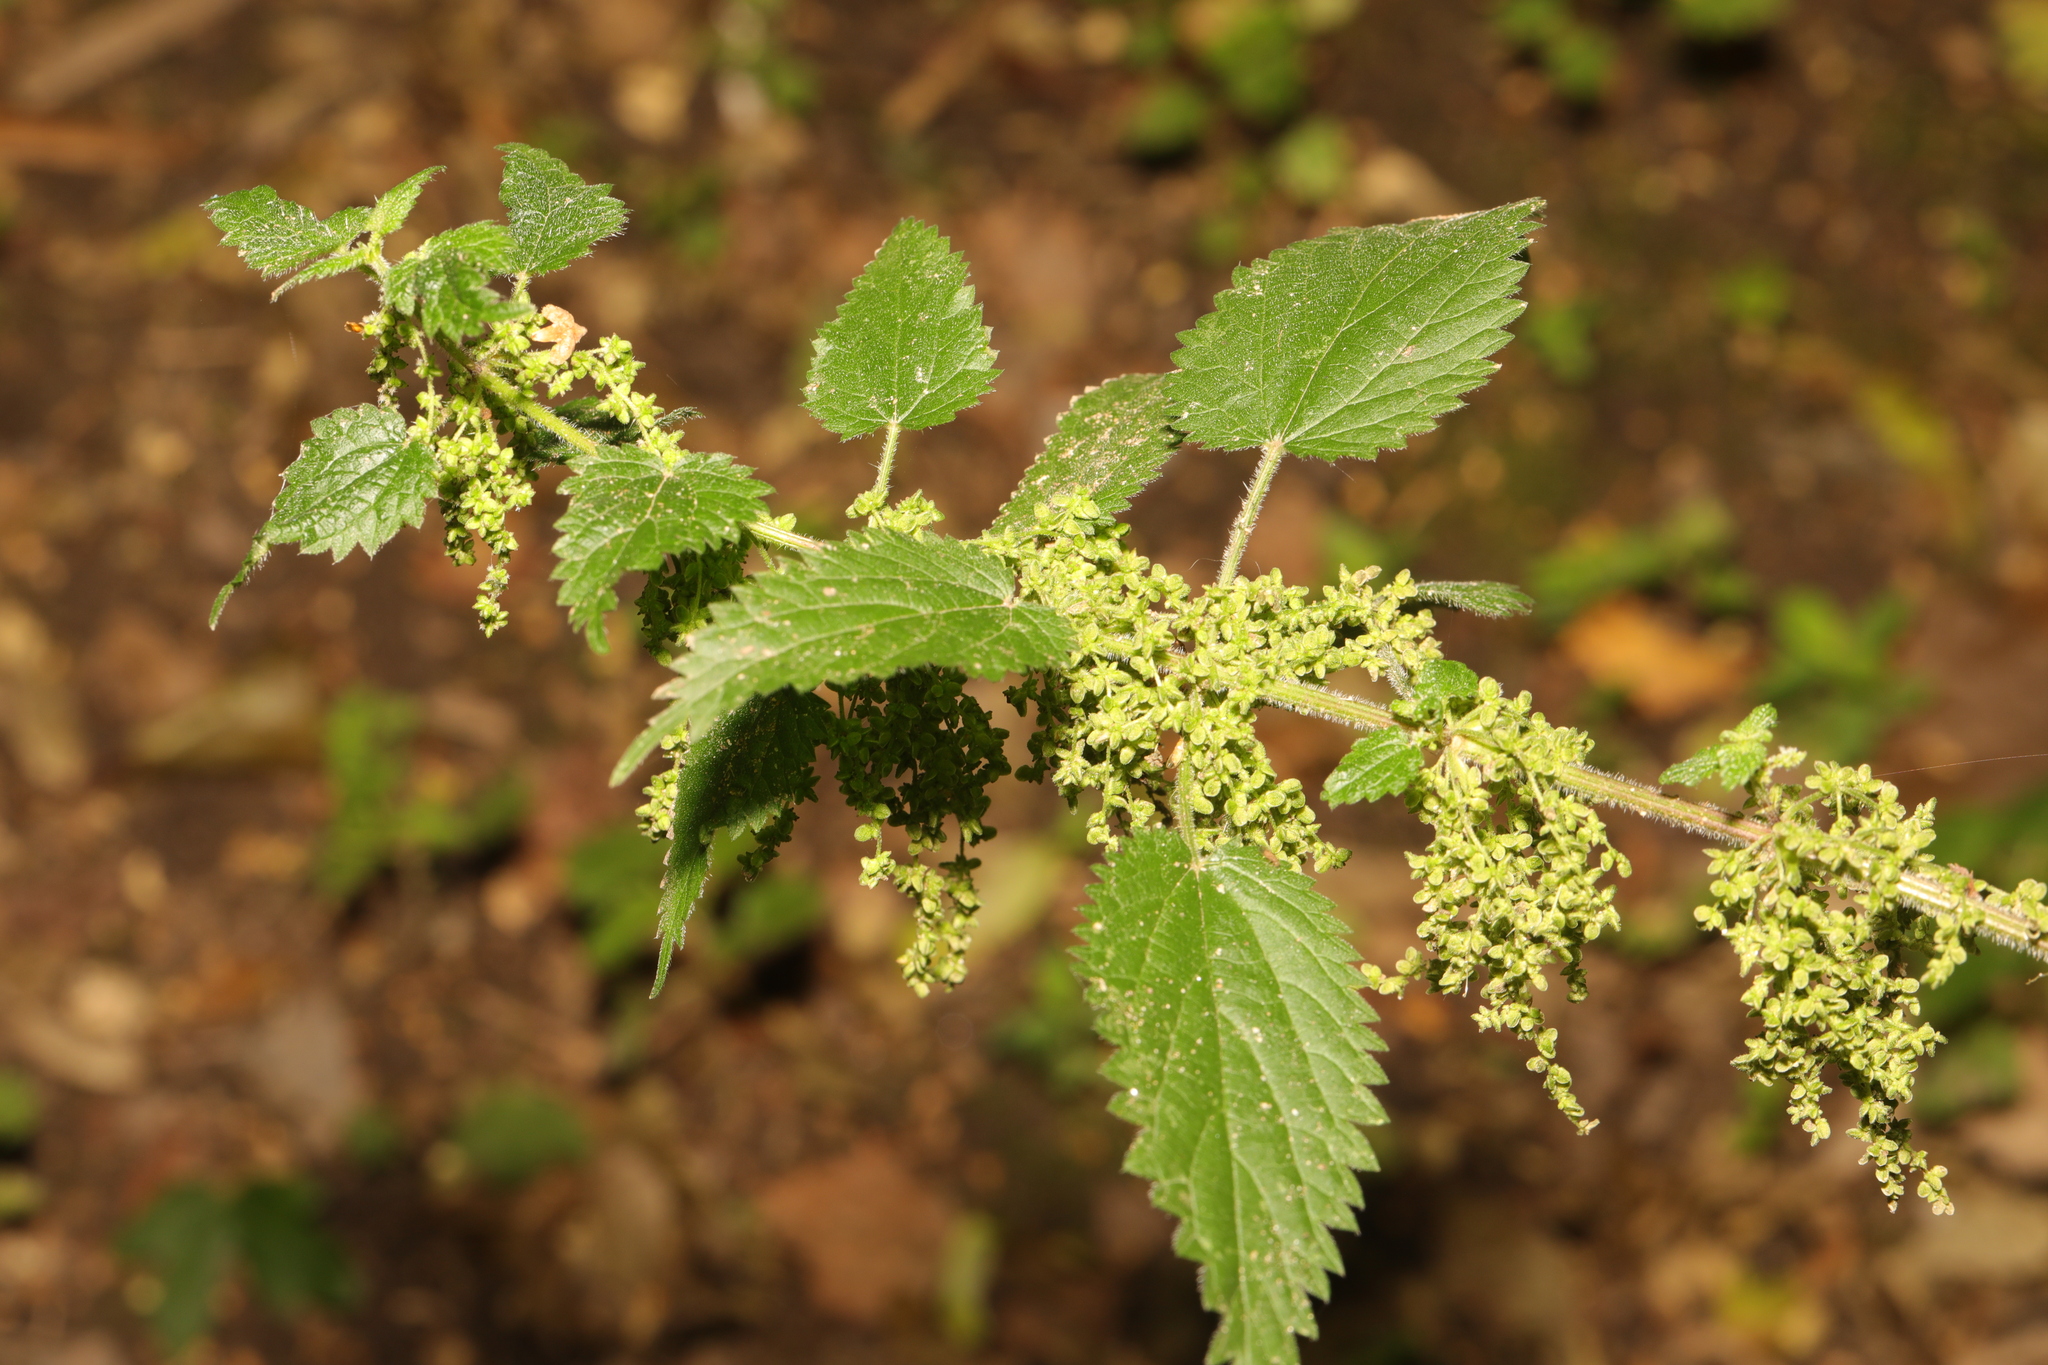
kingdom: Plantae
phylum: Tracheophyta
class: Magnoliopsida
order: Rosales
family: Urticaceae
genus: Urtica
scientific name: Urtica dioica
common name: Common nettle
